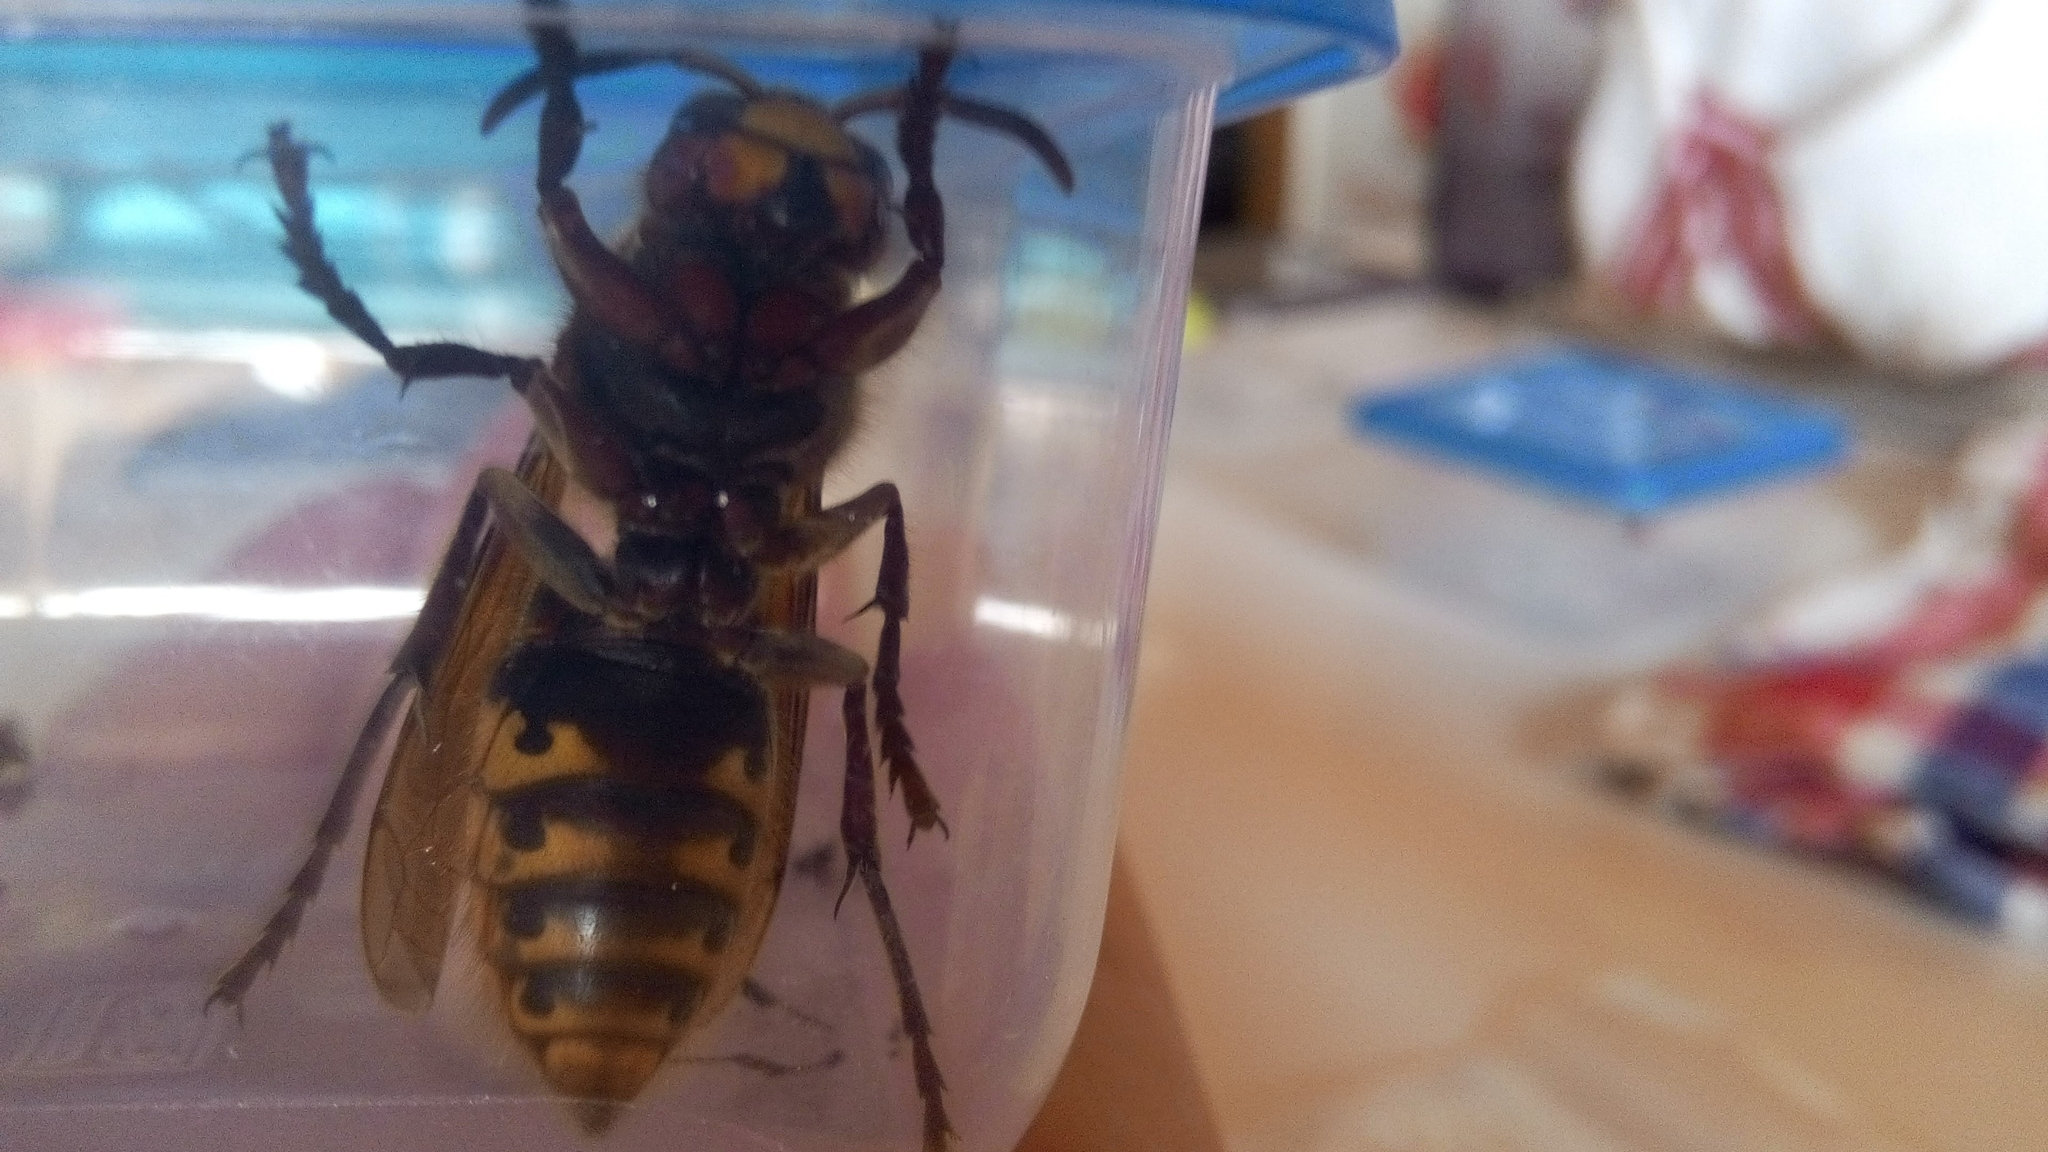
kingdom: Animalia
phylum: Arthropoda
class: Insecta
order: Hymenoptera
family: Vespidae
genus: Vespa
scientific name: Vespa crabro
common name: Hornet
